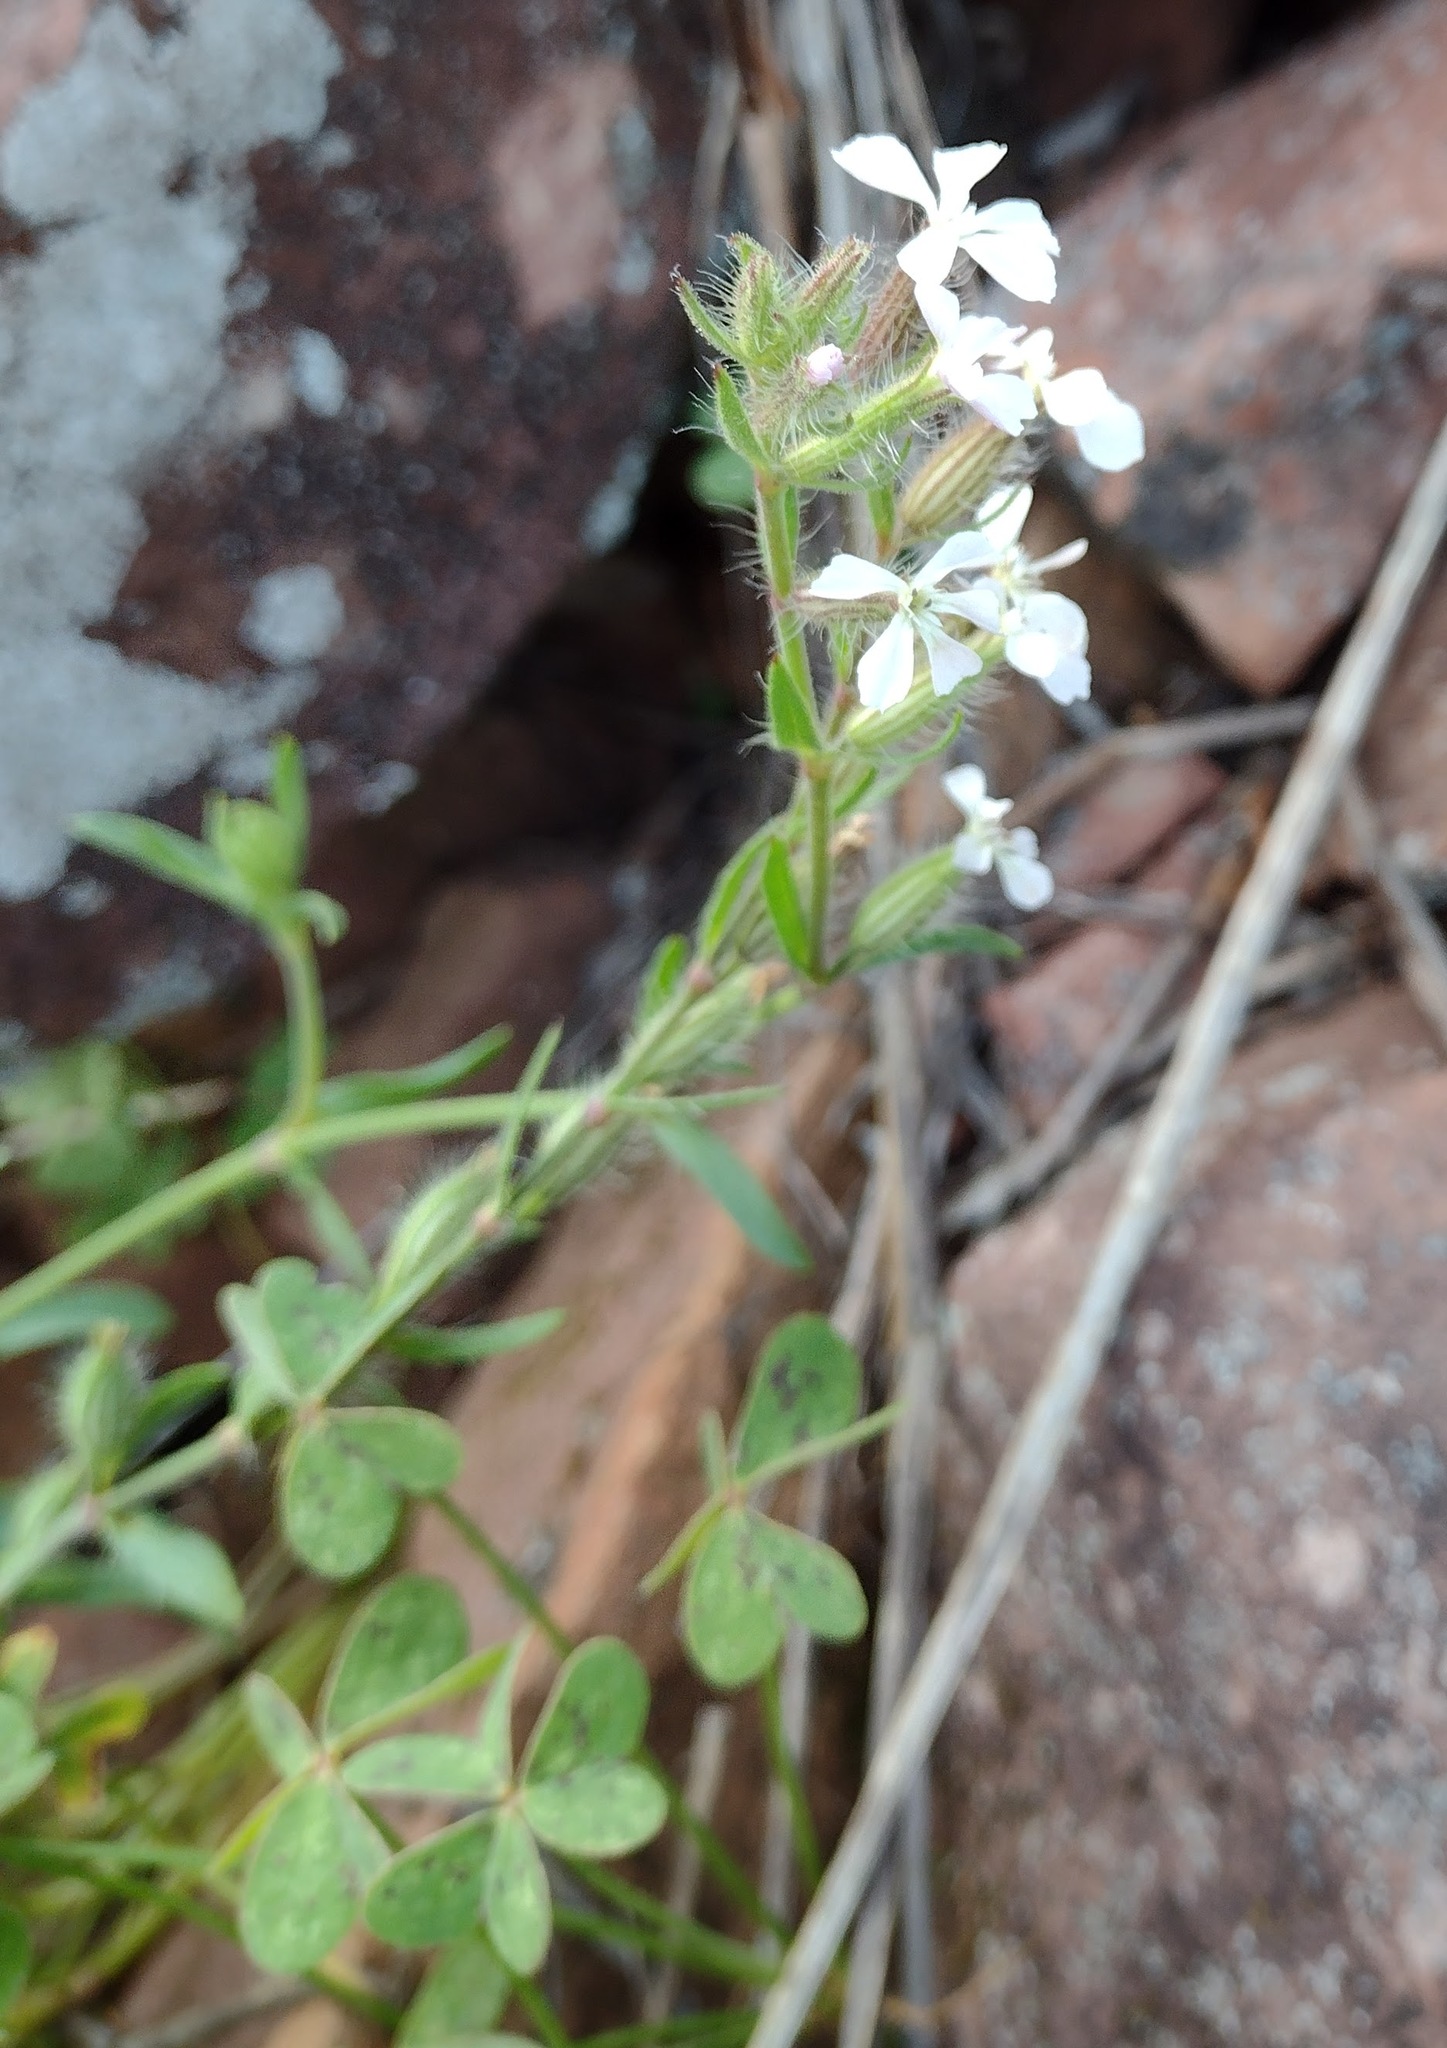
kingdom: Plantae
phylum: Tracheophyta
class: Magnoliopsida
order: Caryophyllales
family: Caryophyllaceae
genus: Silene
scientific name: Silene gallica
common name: Small-flowered catchfly
